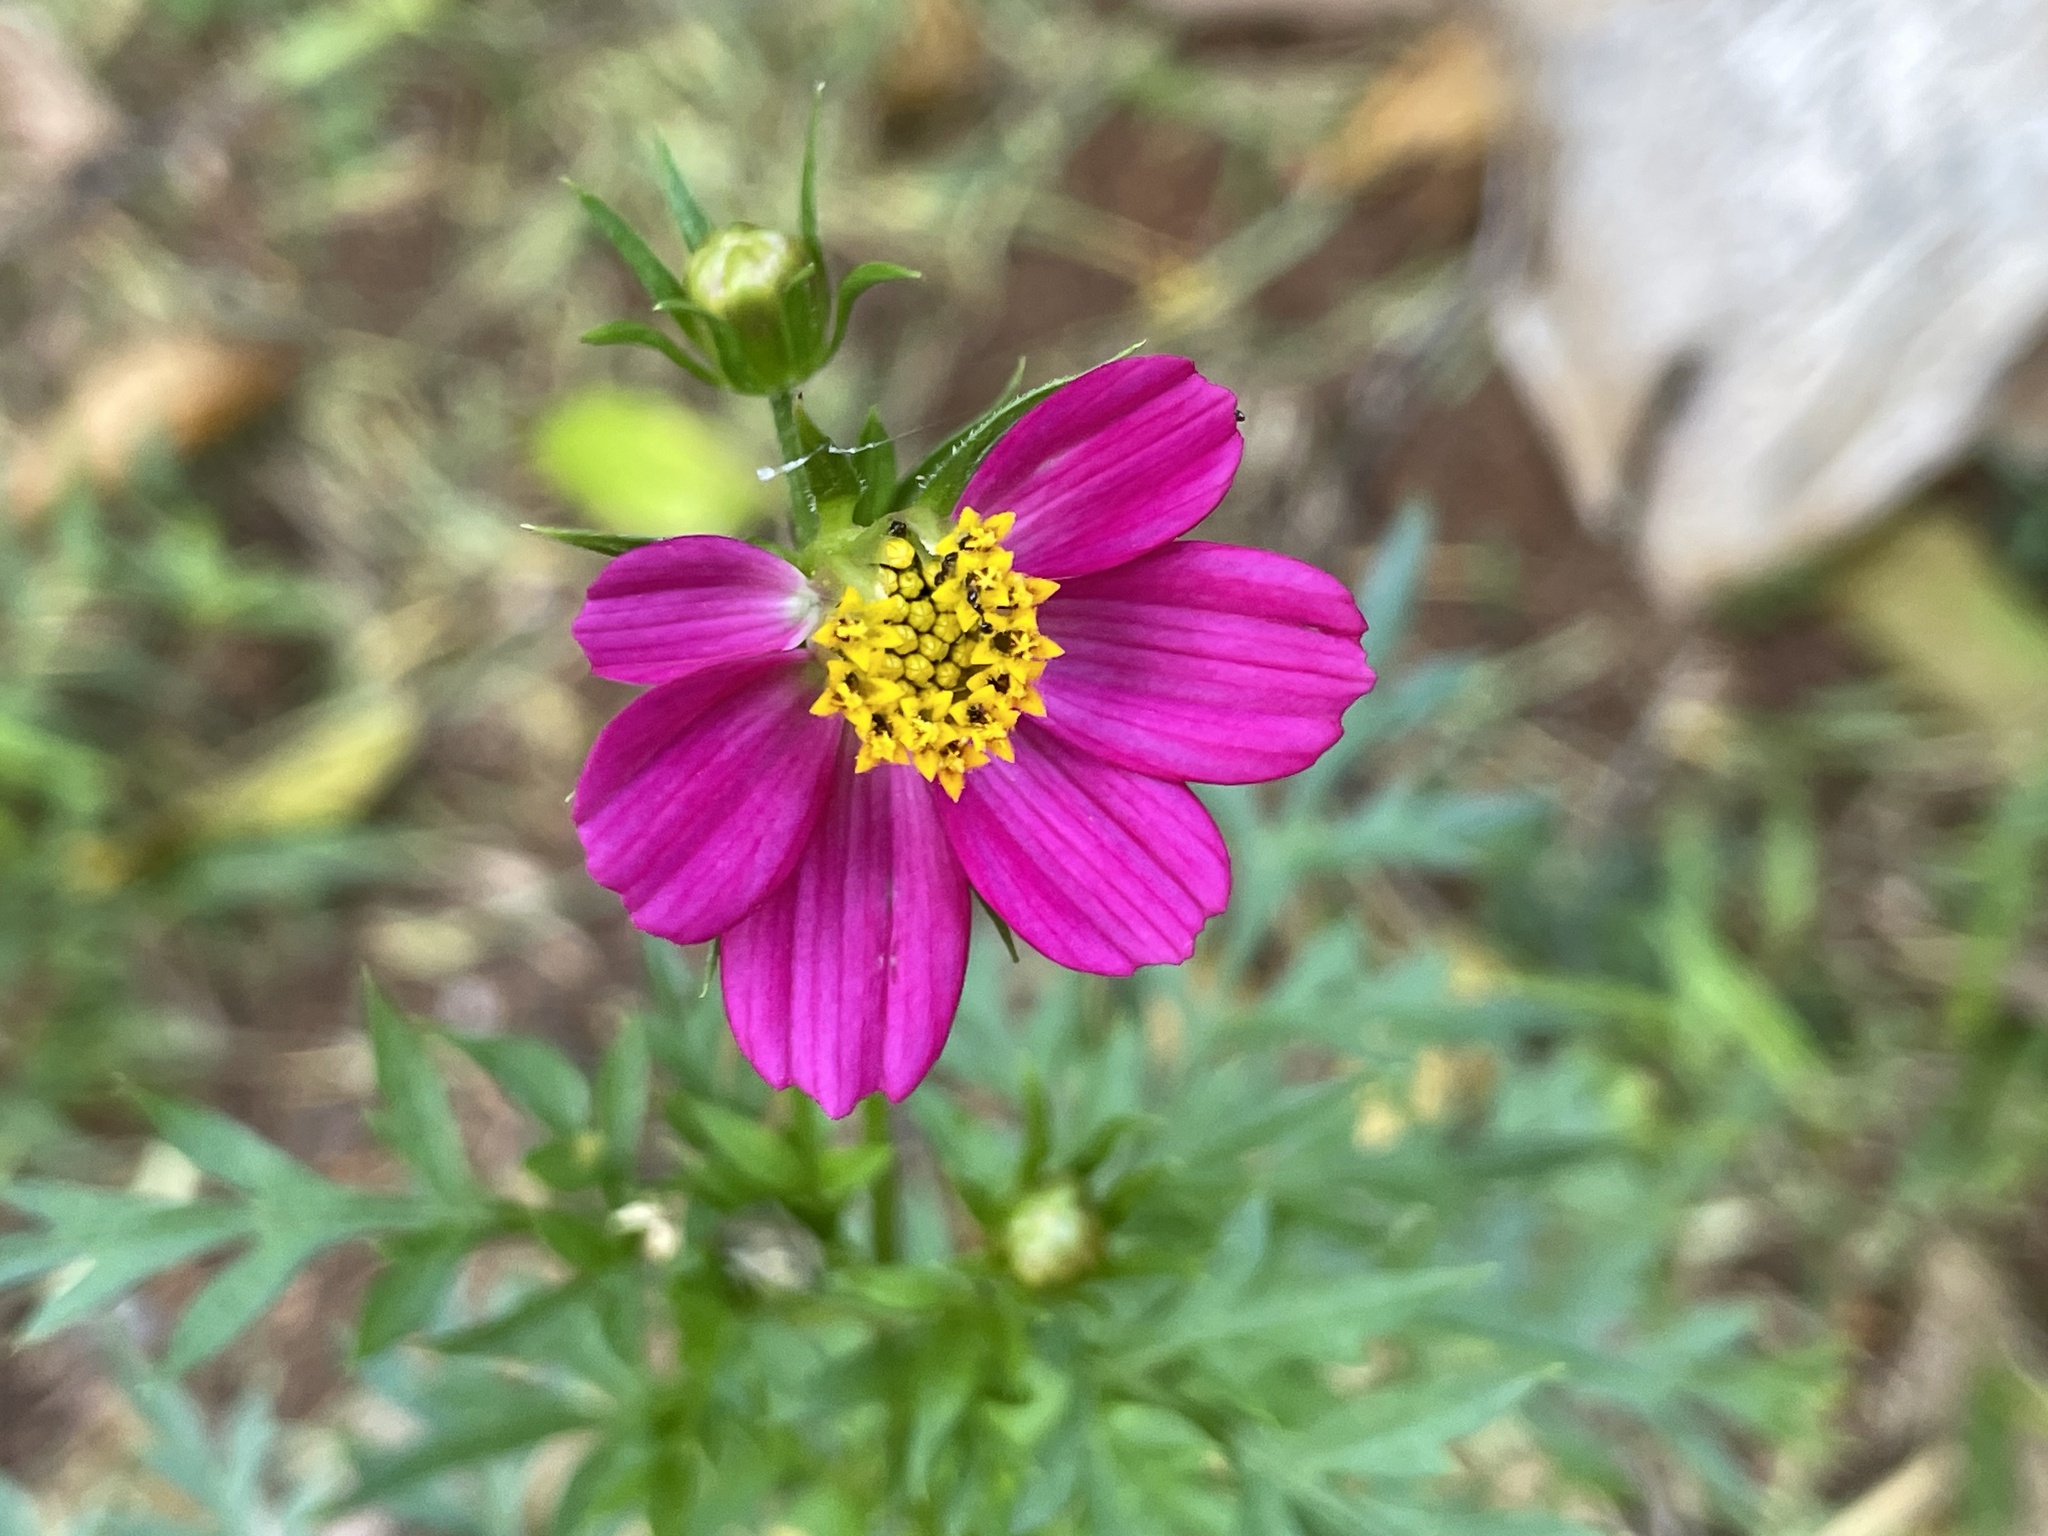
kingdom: Plantae
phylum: Tracheophyta
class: Magnoliopsida
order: Asterales
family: Asteraceae
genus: Cosmos
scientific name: Cosmos caudatus
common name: Wild cosmos
